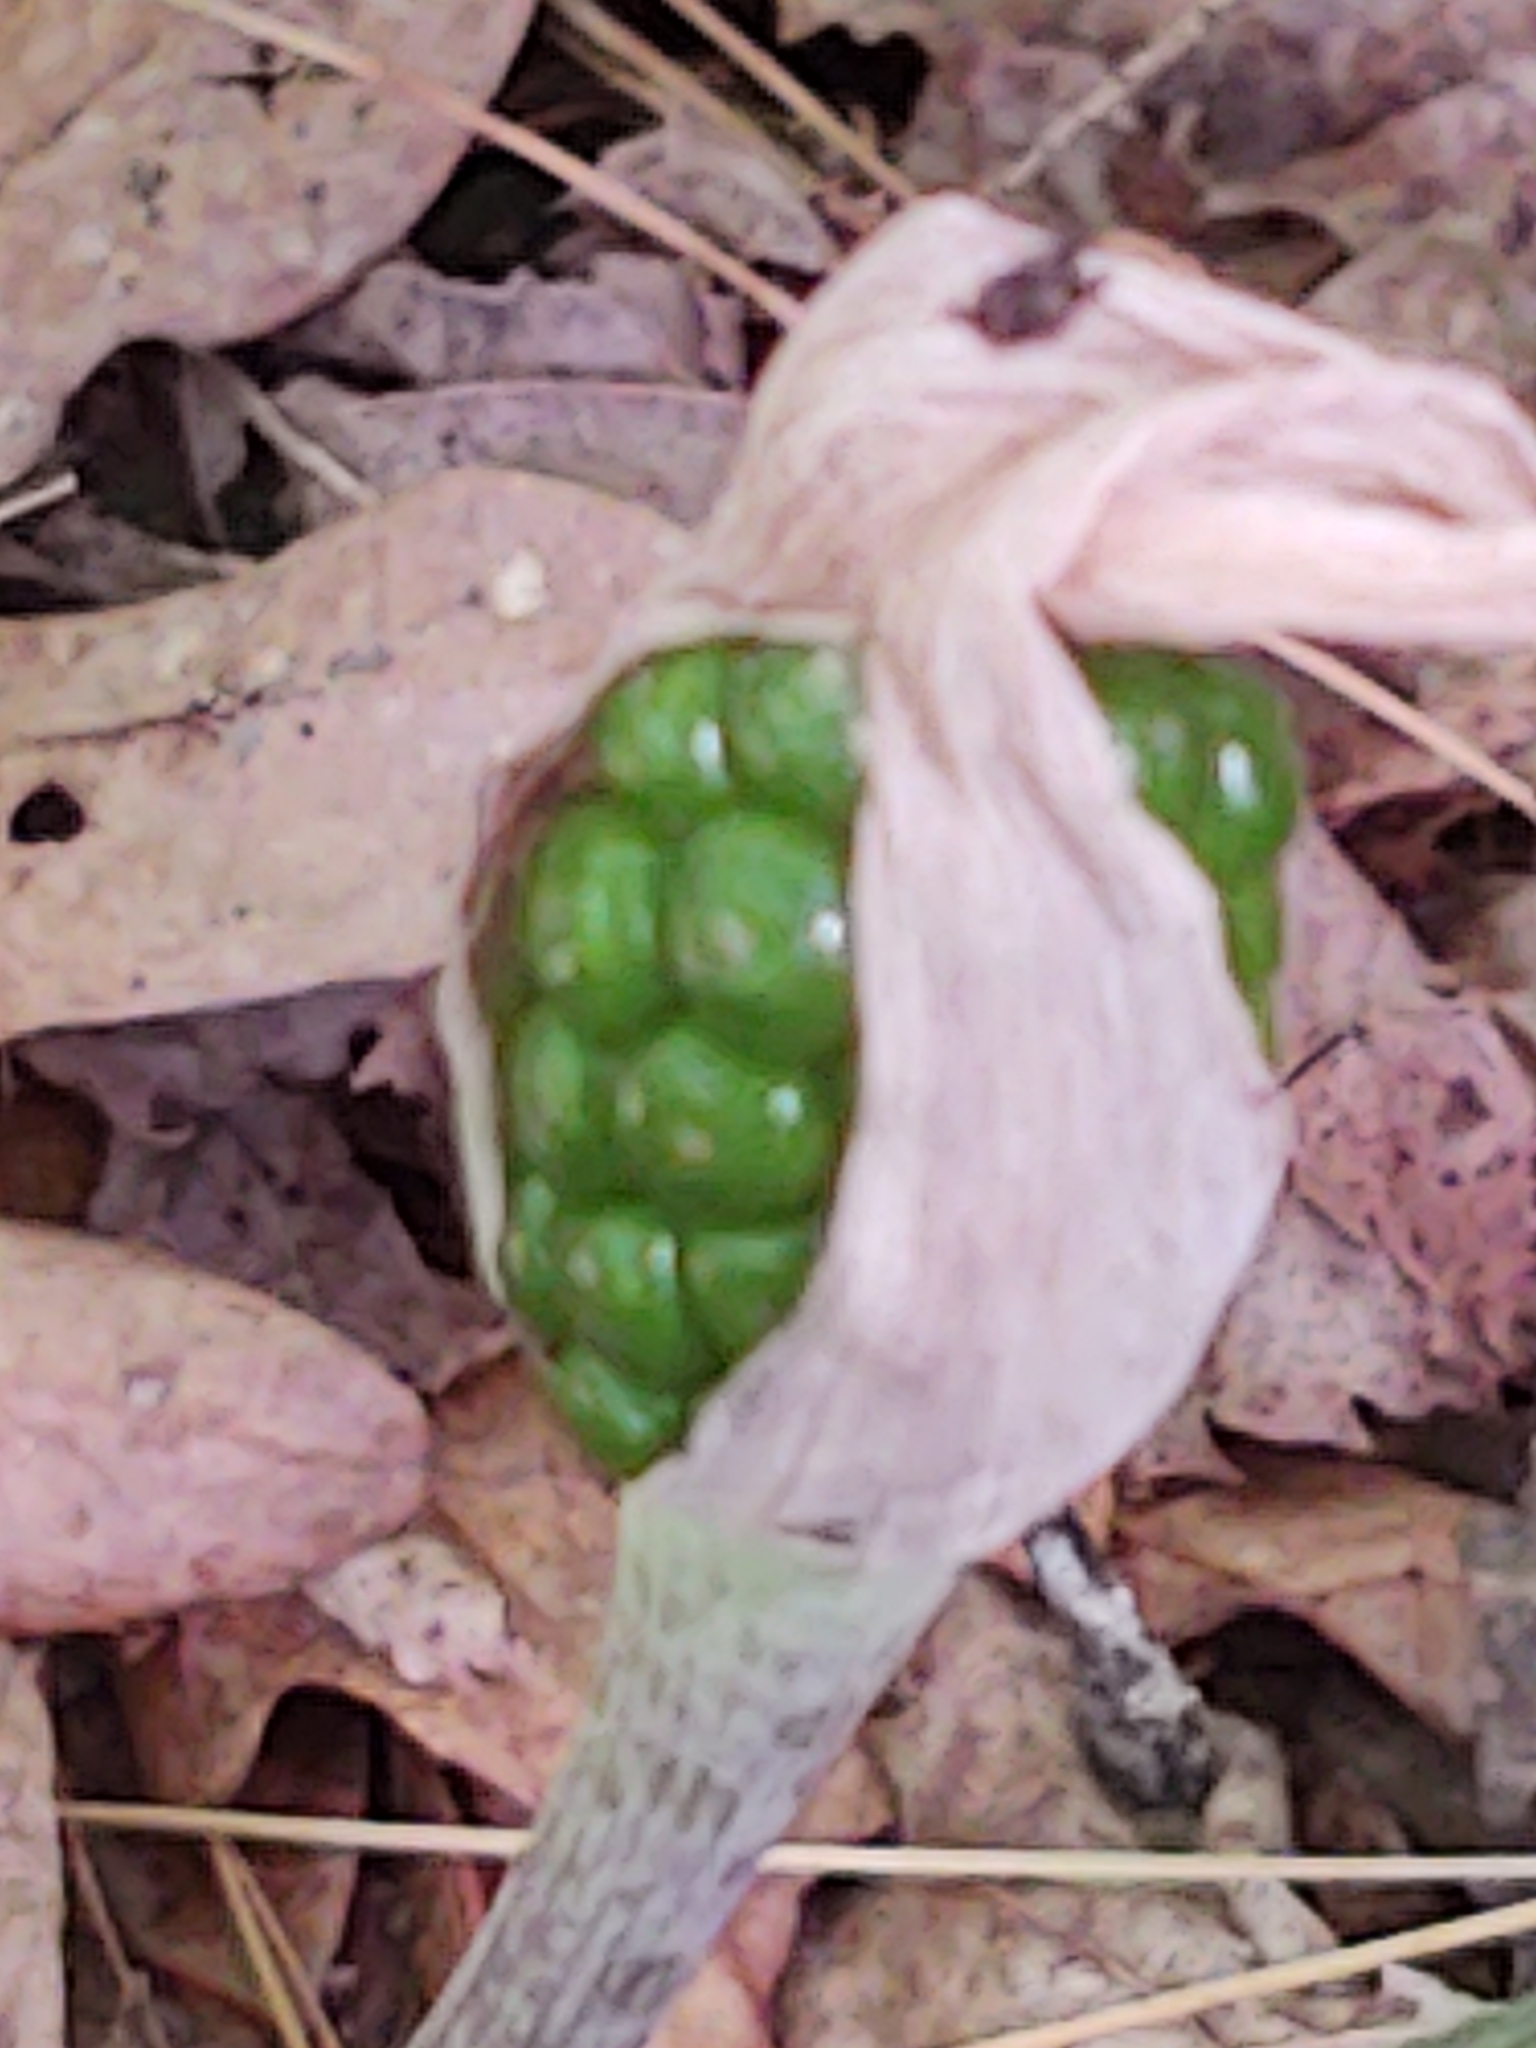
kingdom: Plantae
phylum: Tracheophyta
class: Liliopsida
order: Alismatales
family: Araceae
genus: Arisaema
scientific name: Arisaema triphyllum
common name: Jack-in-the-pulpit
